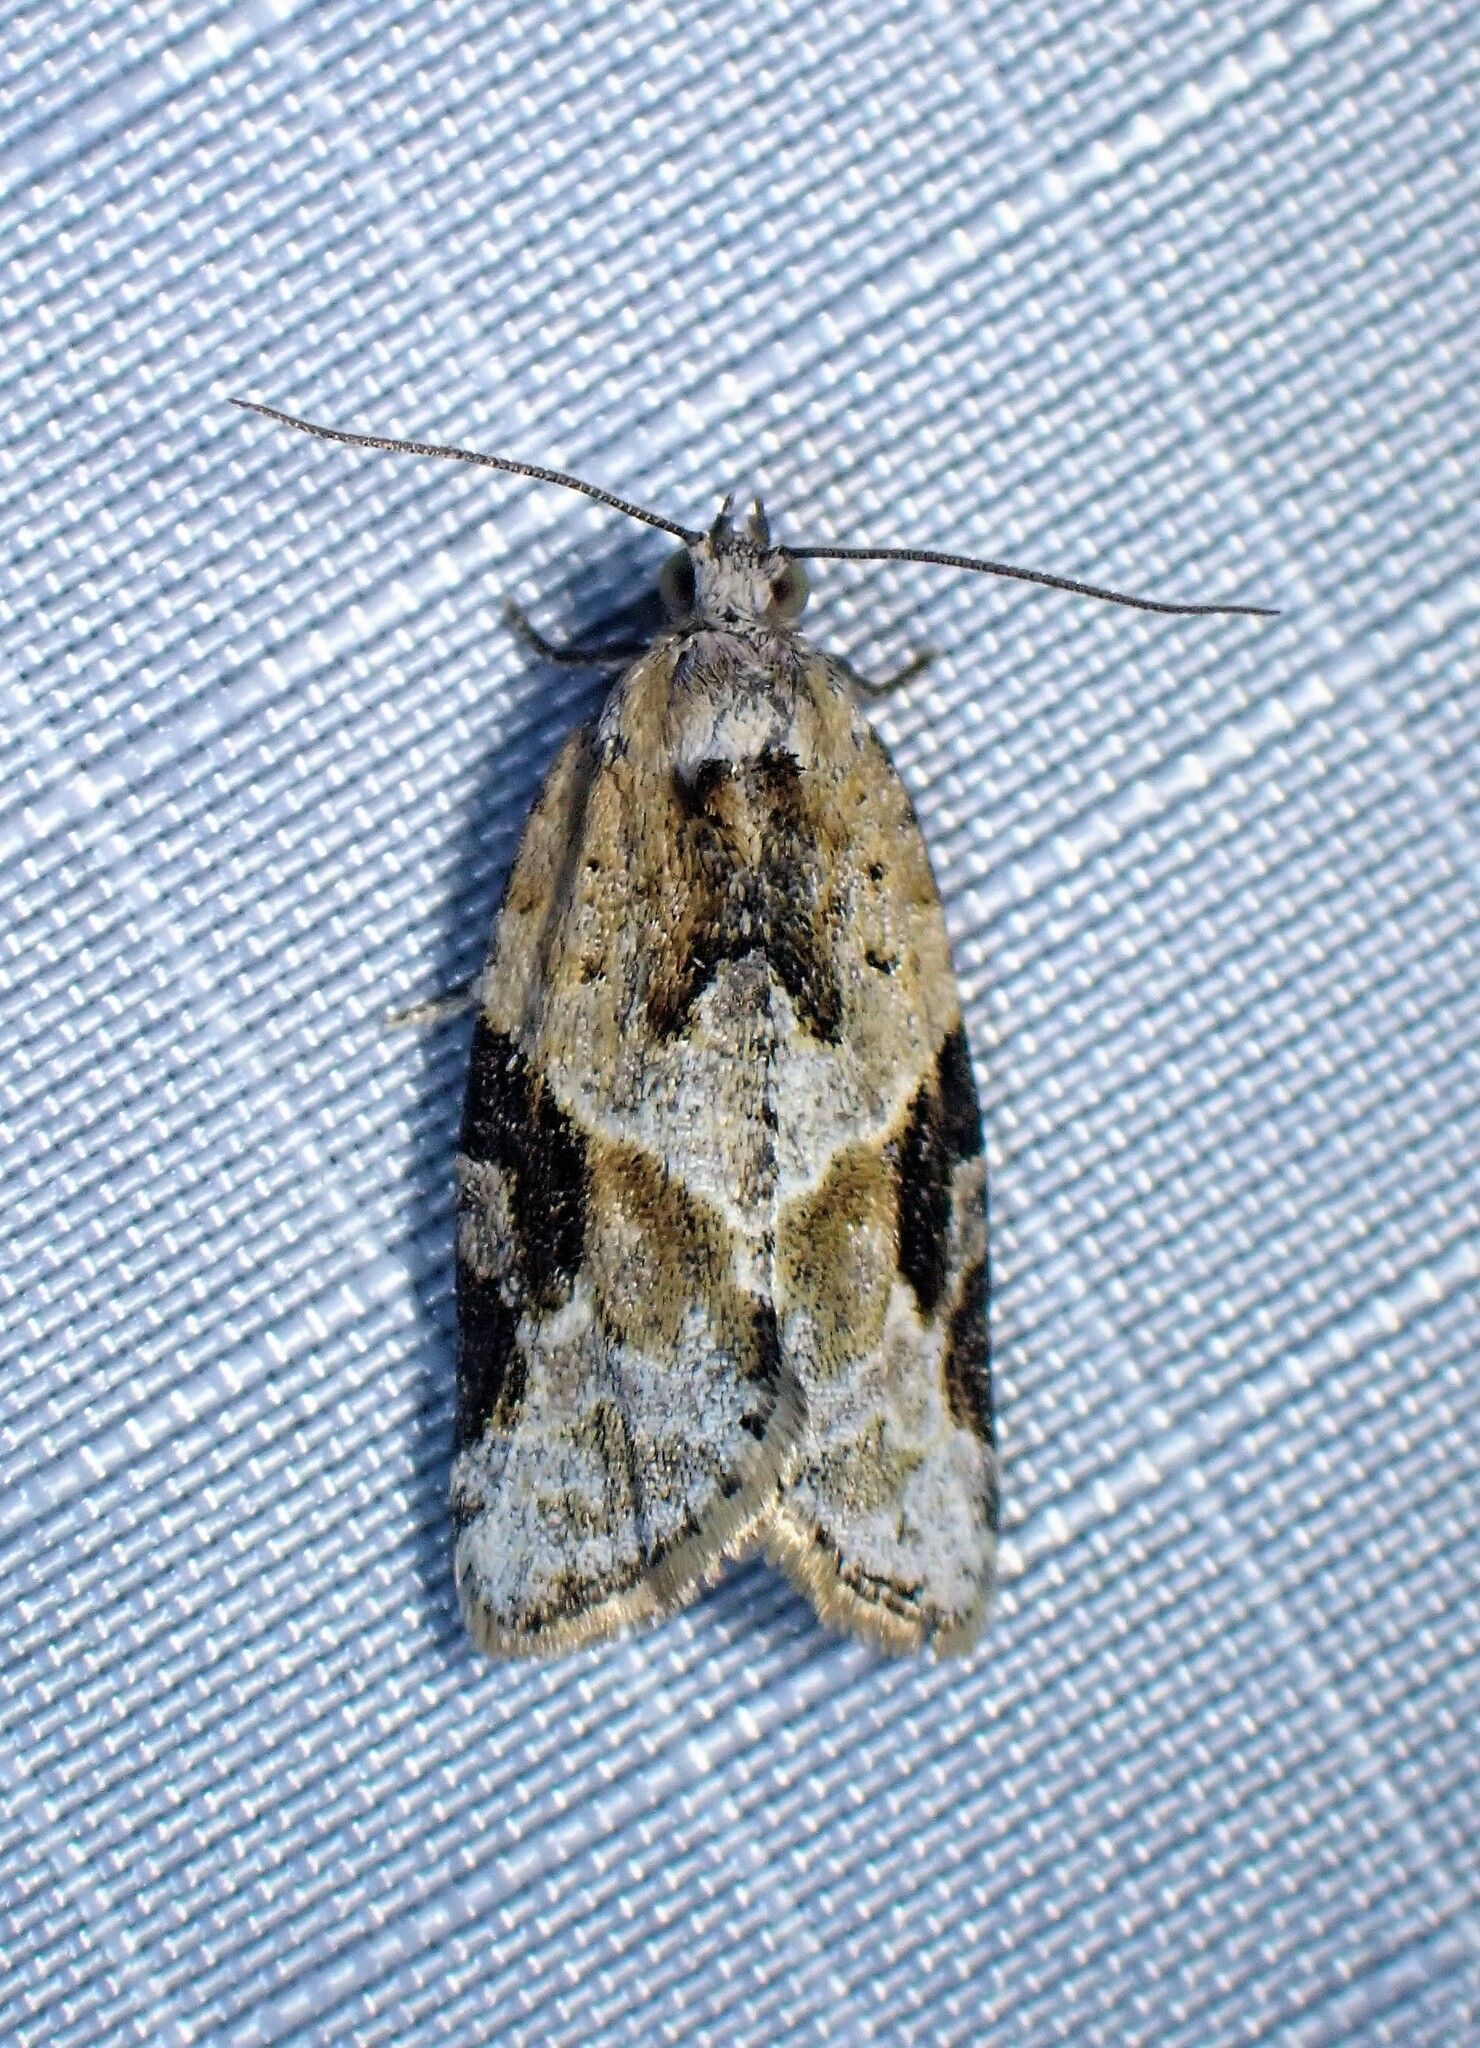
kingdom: Animalia
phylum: Arthropoda
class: Insecta
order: Lepidoptera
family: Tortricidae
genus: Argyrotaenia
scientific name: Argyrotaenia mariana
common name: Gray-banded leafroller moth
